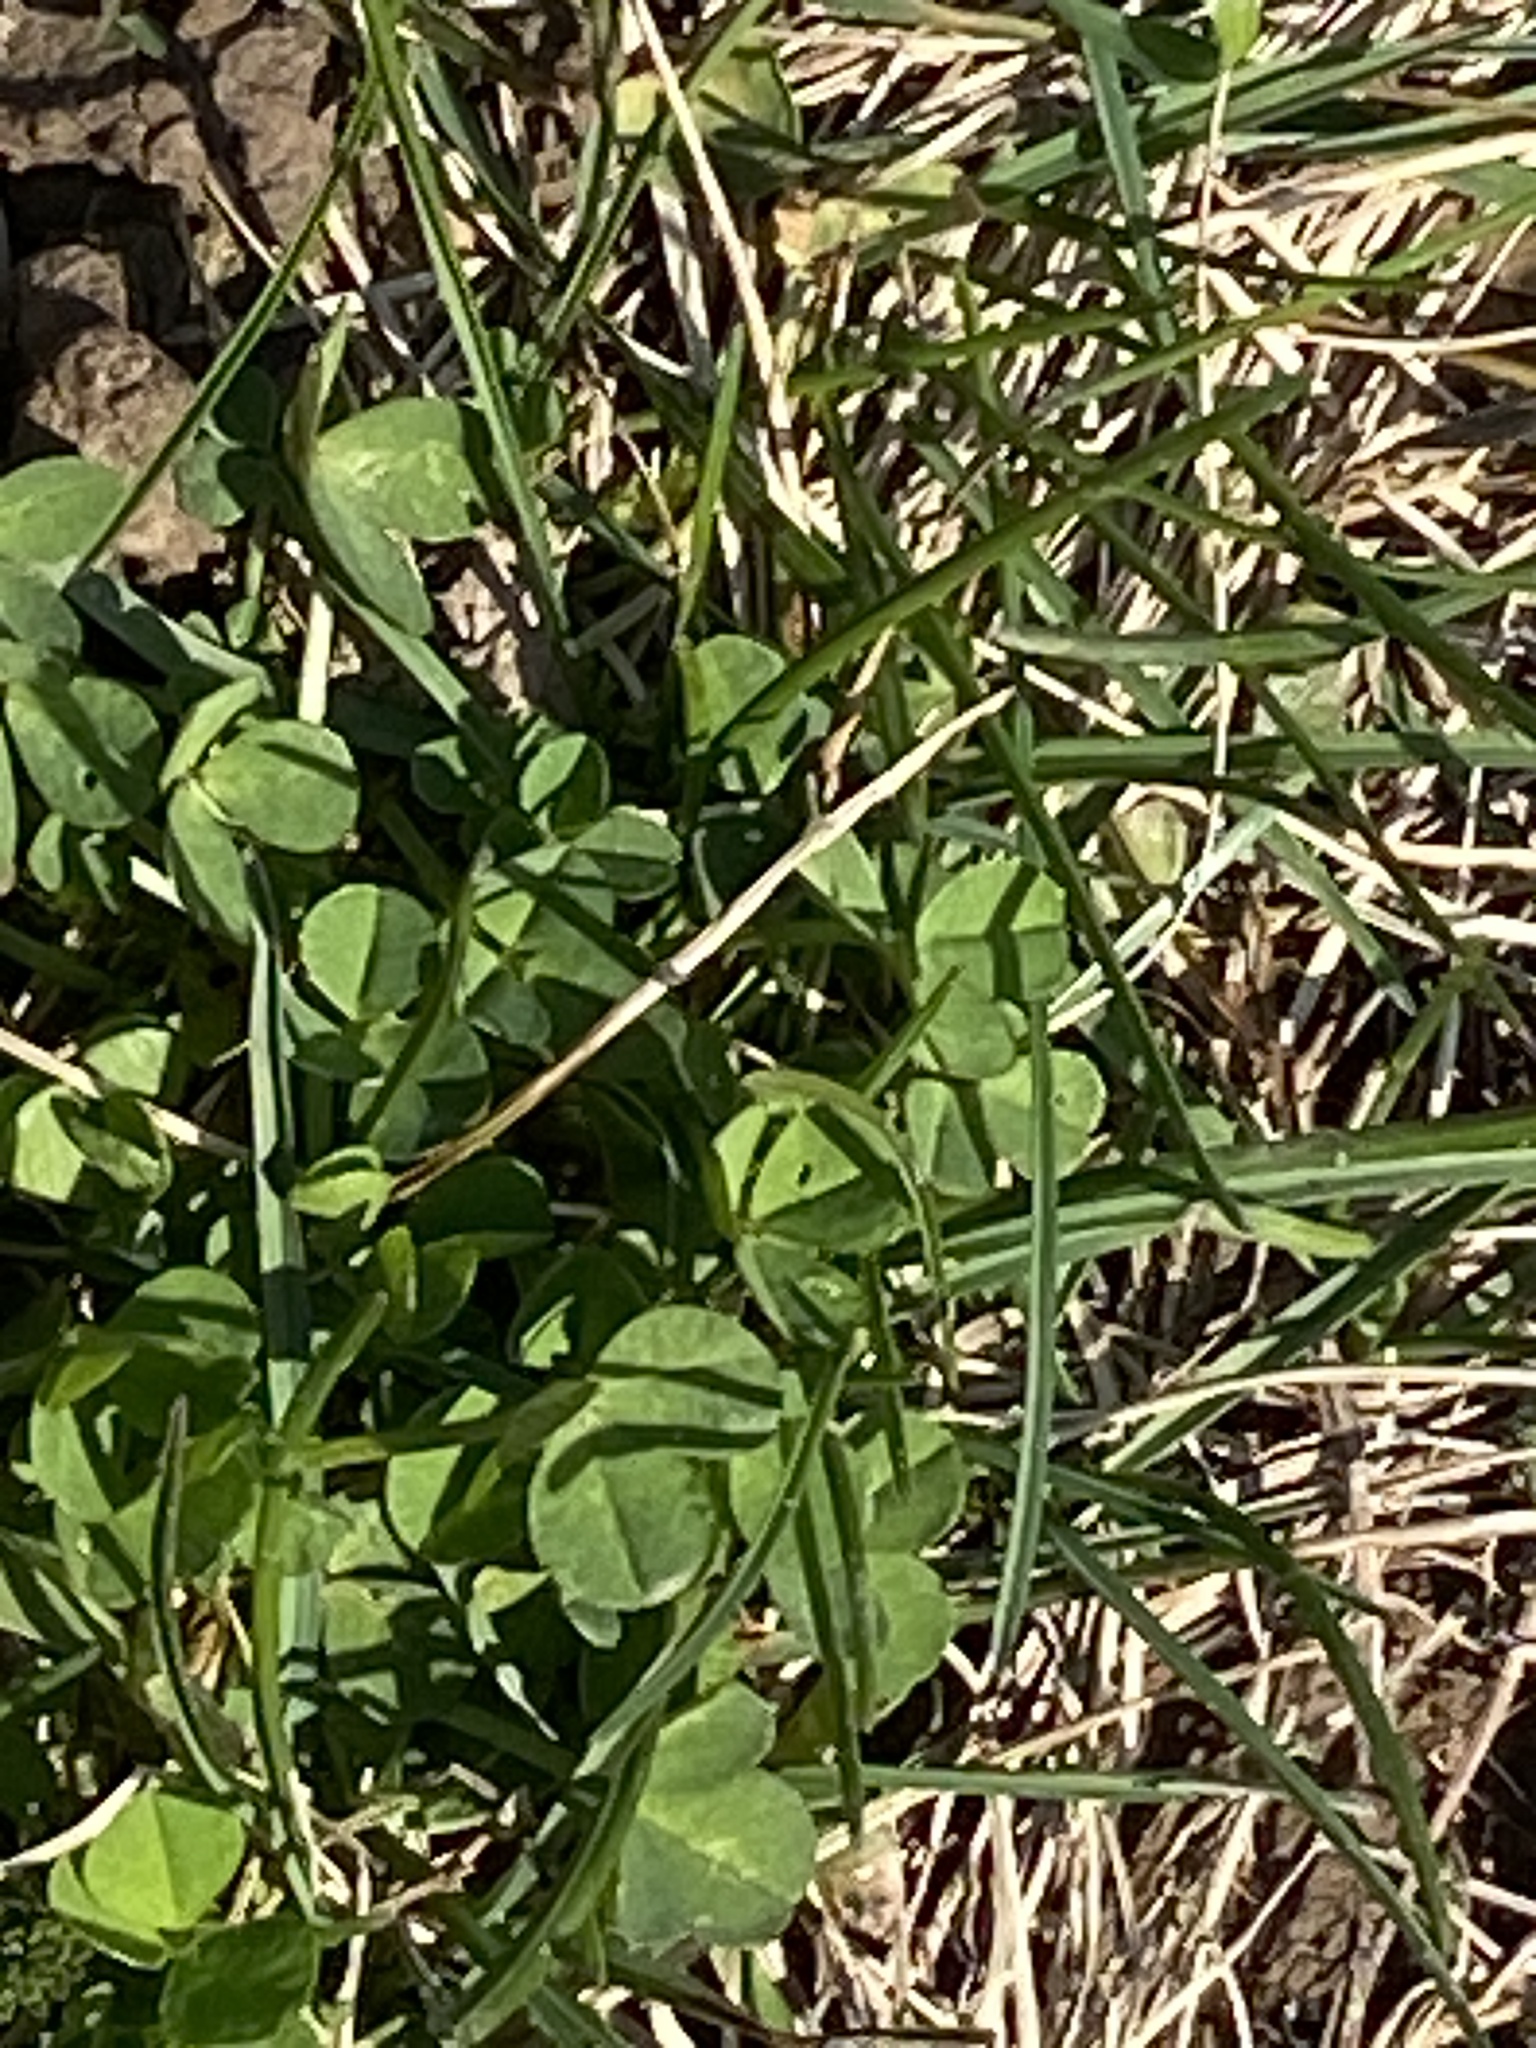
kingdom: Plantae
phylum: Tracheophyta
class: Magnoliopsida
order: Fabales
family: Fabaceae
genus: Trifolium
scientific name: Trifolium repens
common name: White clover
